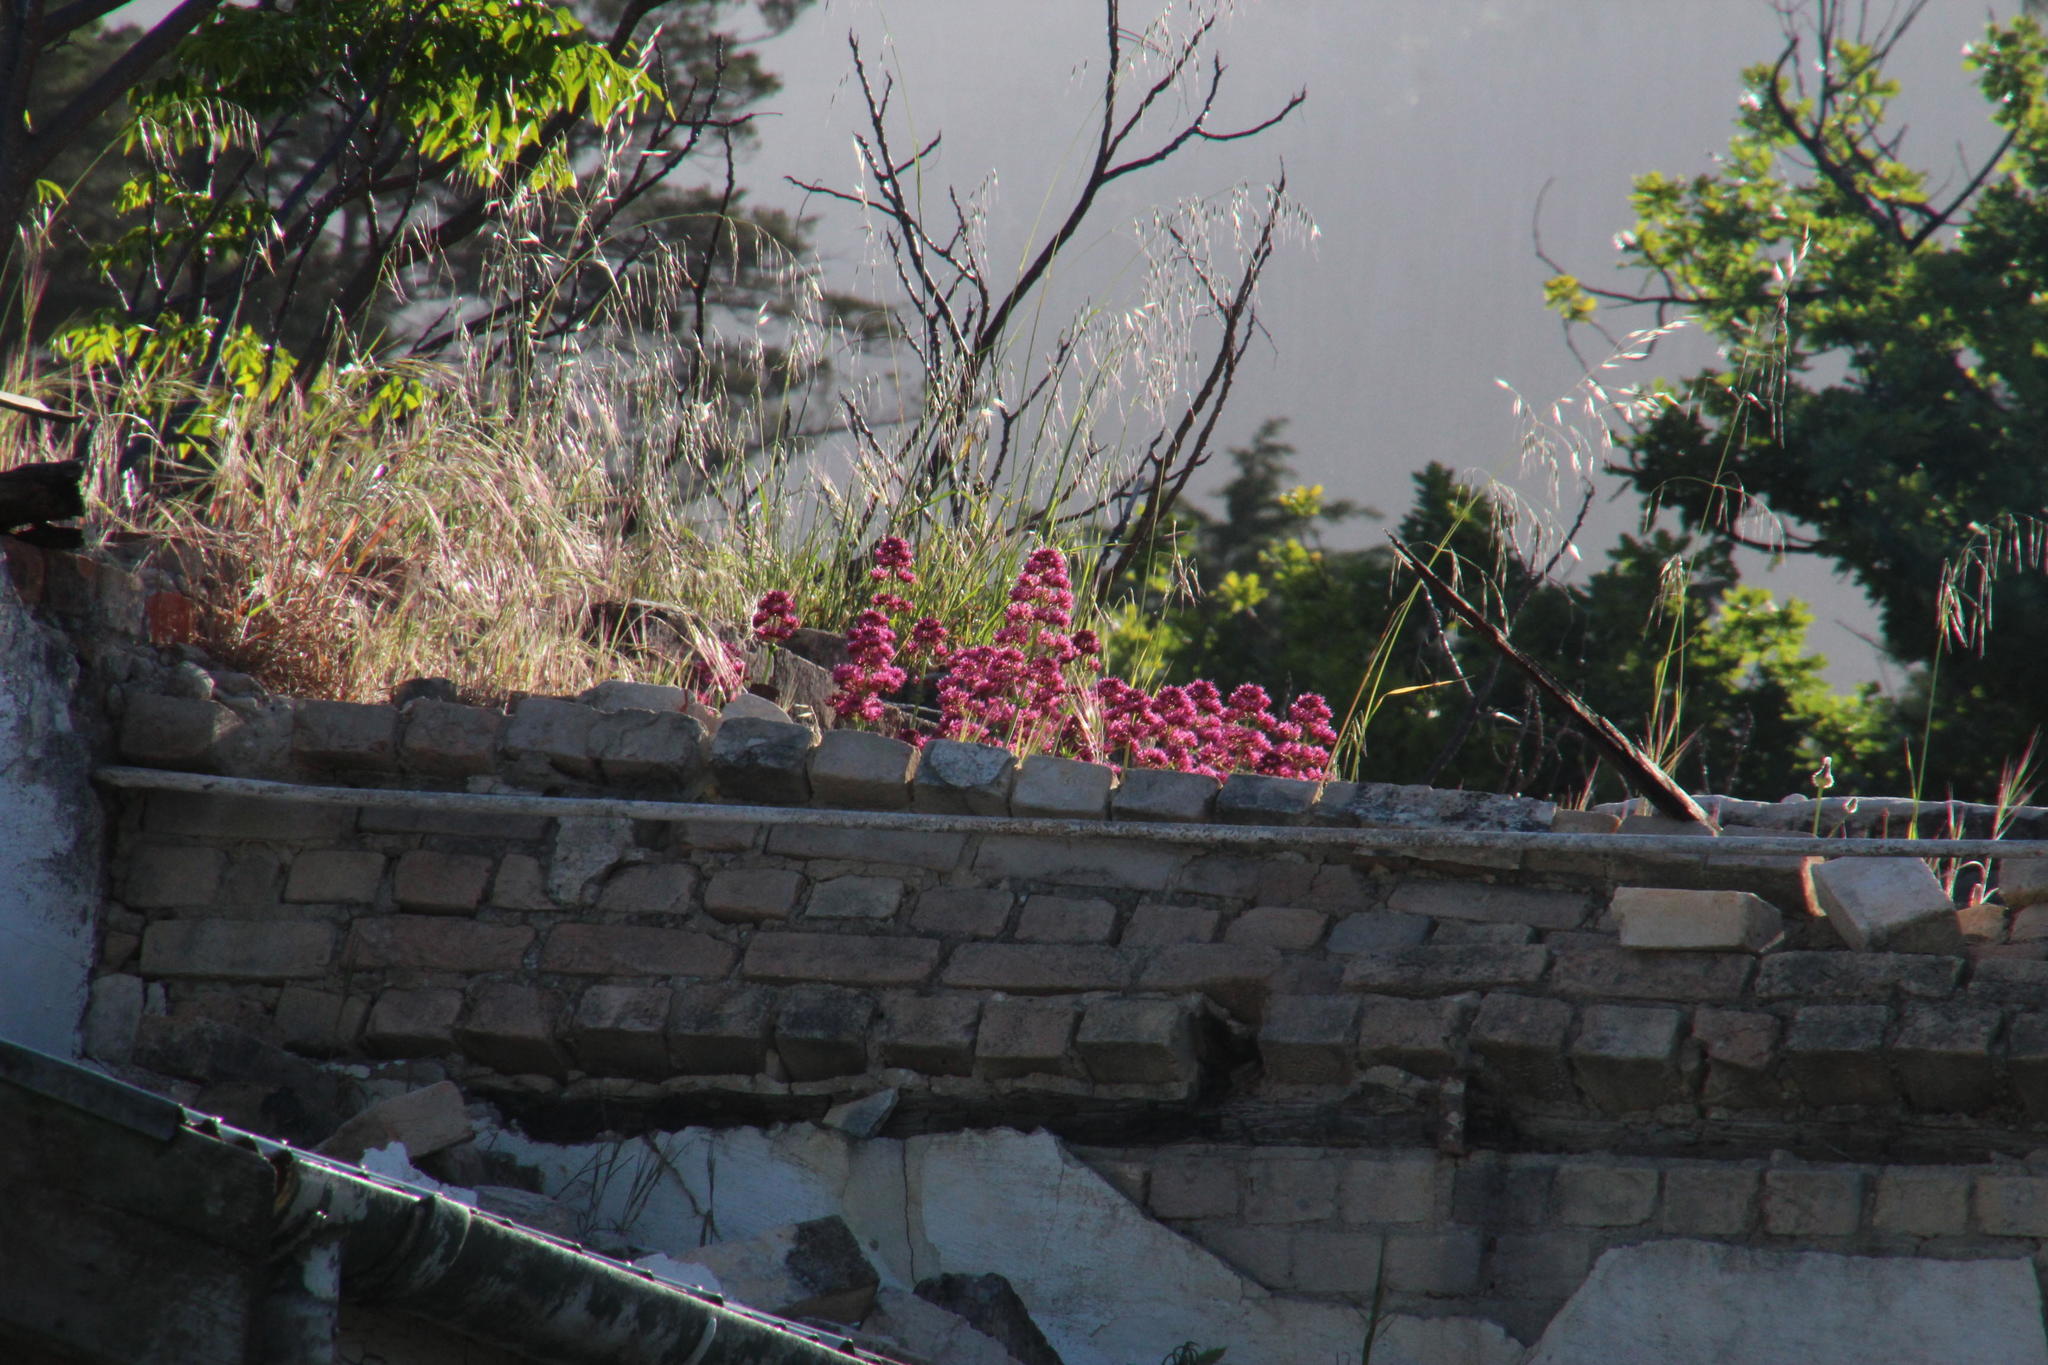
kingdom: Plantae
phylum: Tracheophyta
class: Magnoliopsida
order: Dipsacales
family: Caprifoliaceae
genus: Centranthus
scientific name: Centranthus ruber
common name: Red valerian
